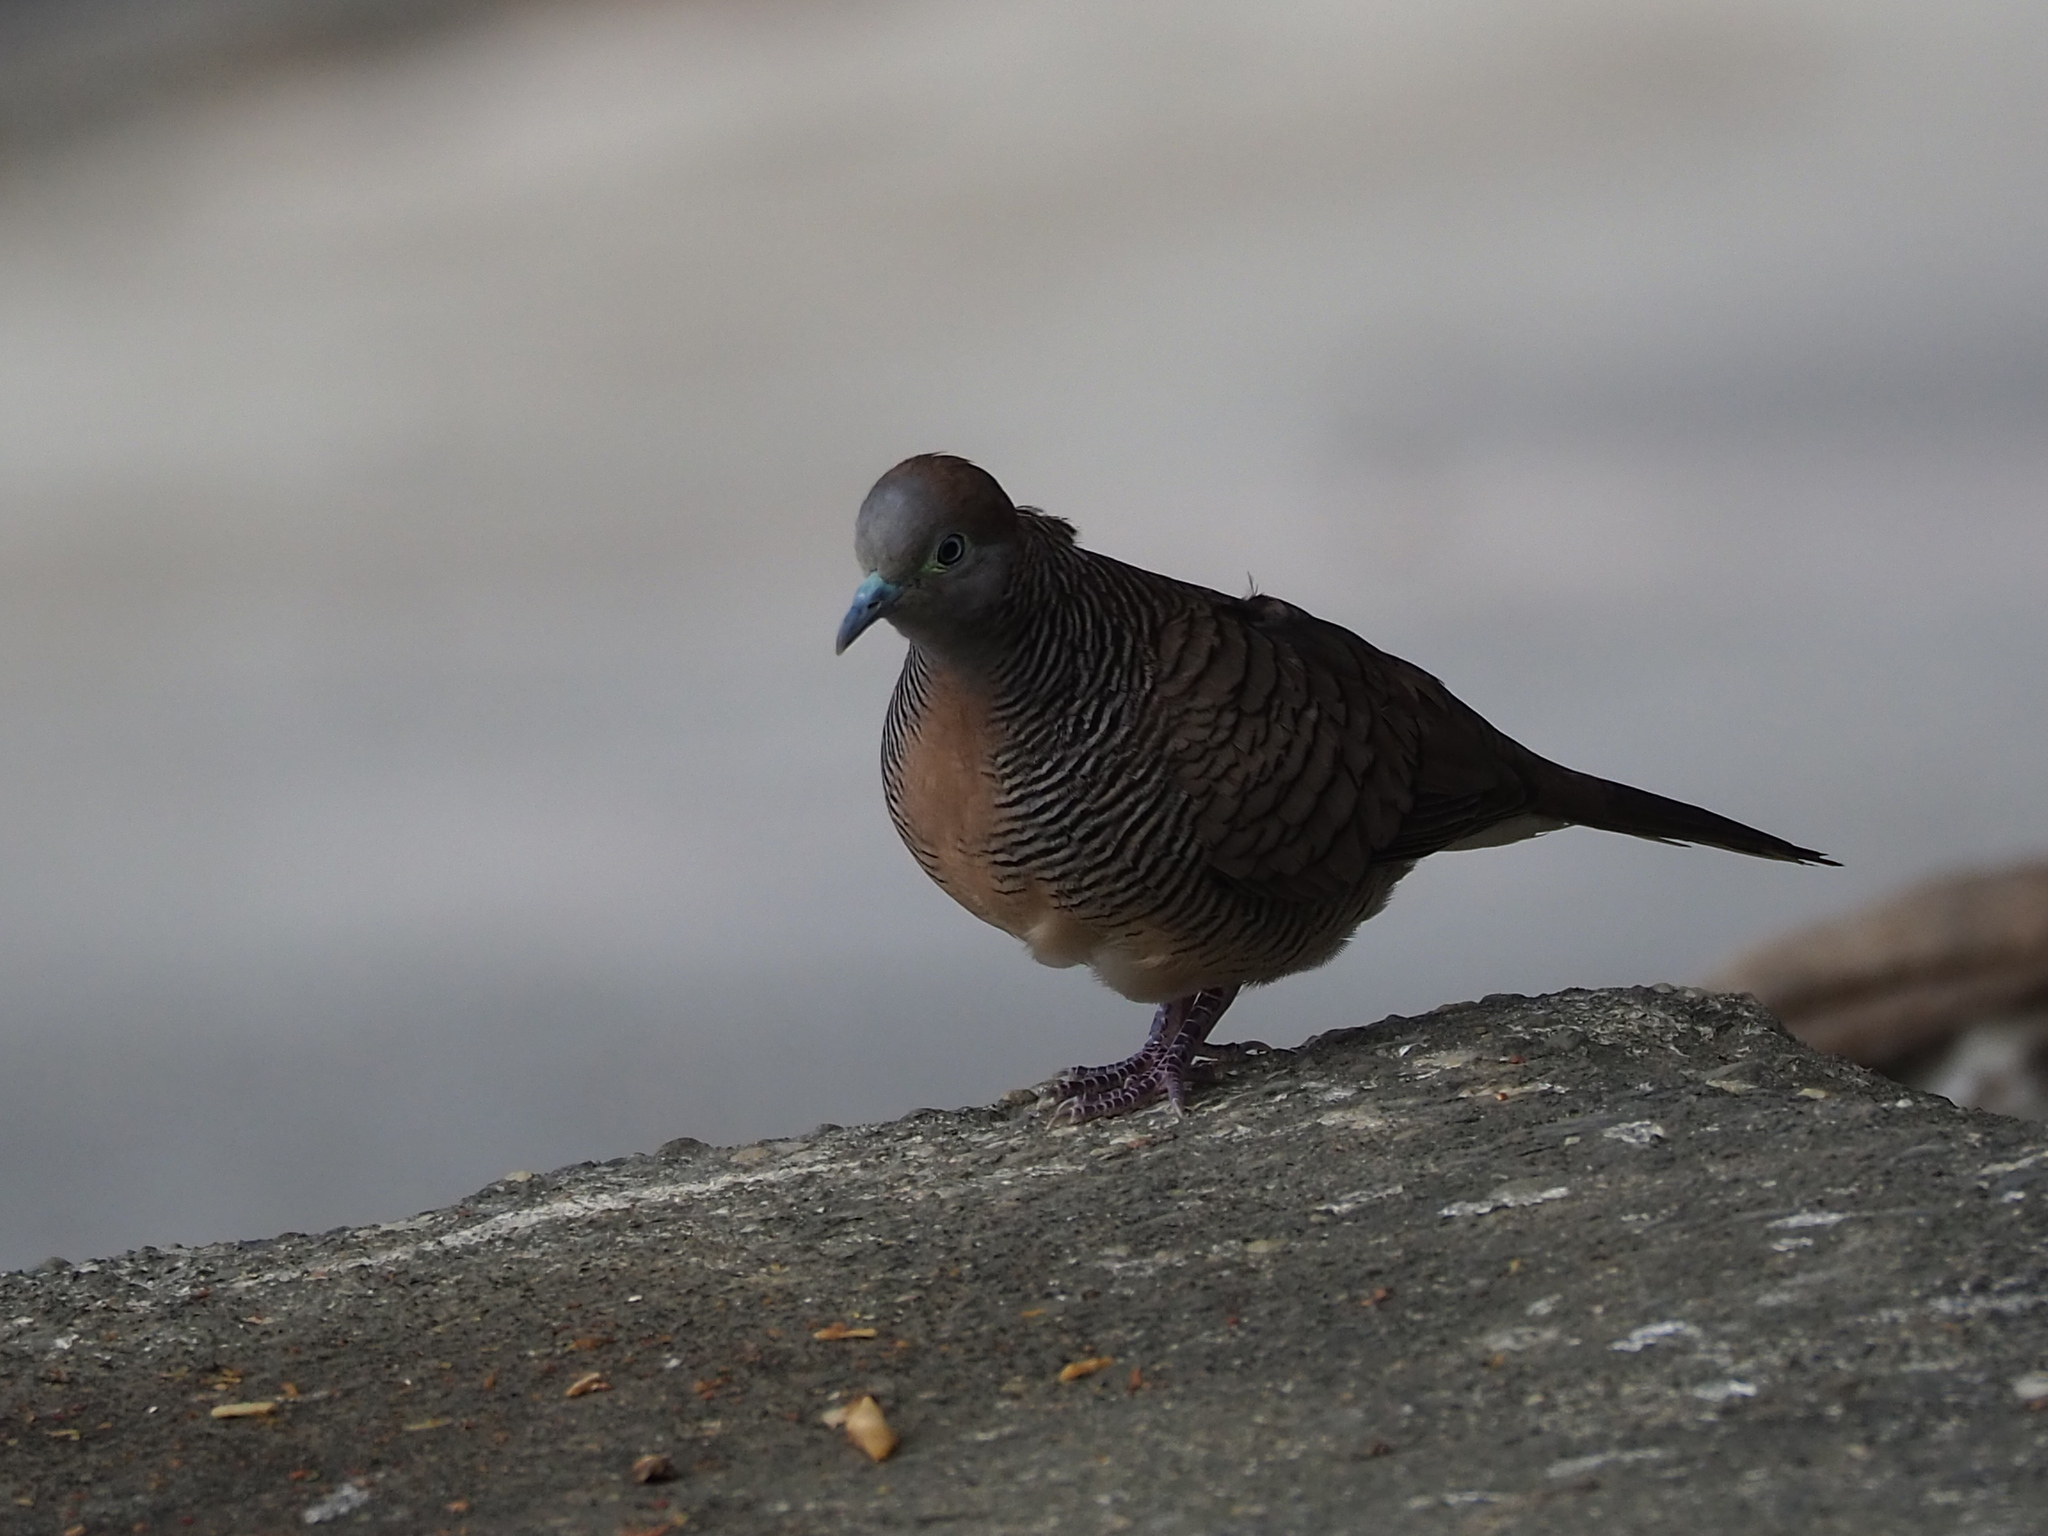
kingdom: Animalia
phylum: Chordata
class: Aves
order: Columbiformes
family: Columbidae
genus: Geopelia
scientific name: Geopelia striata
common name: Zebra dove
